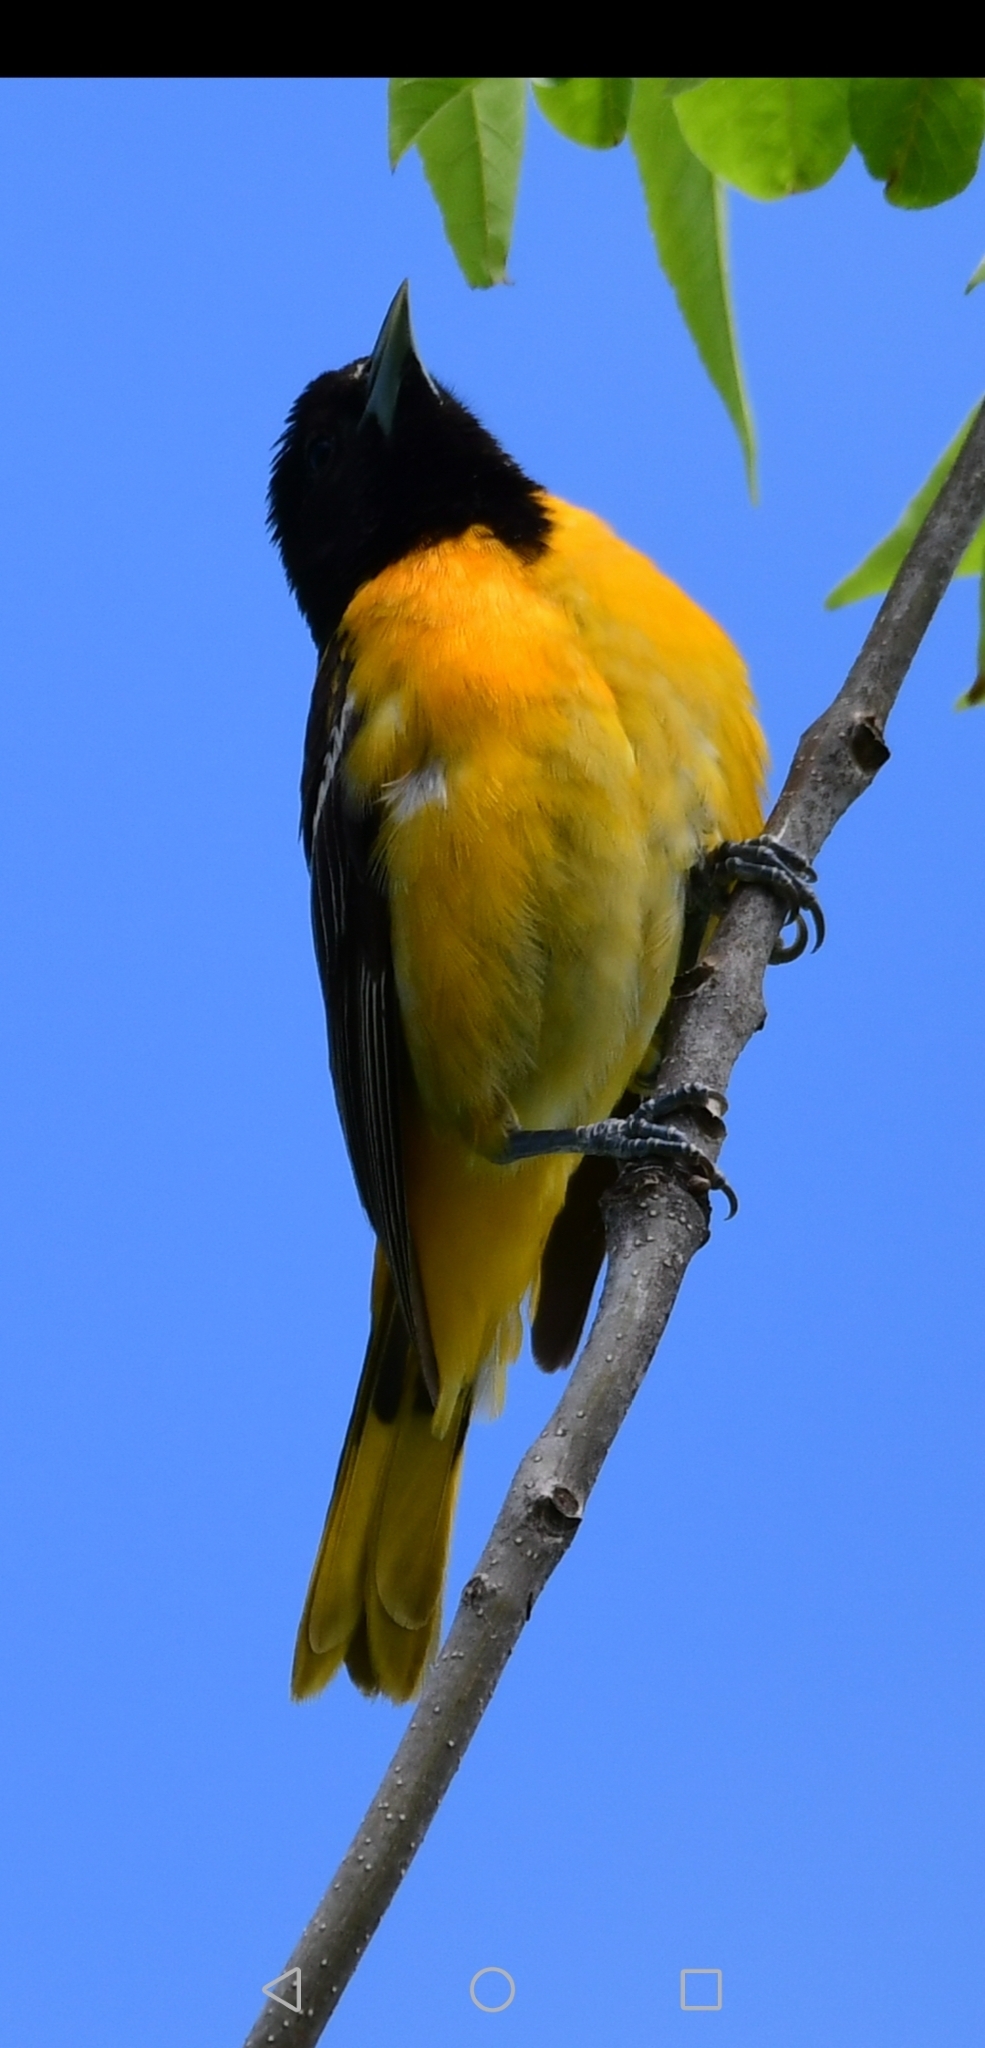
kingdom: Animalia
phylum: Chordata
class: Aves
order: Passeriformes
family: Icteridae
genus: Icterus
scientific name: Icterus galbula
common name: Baltimore oriole
